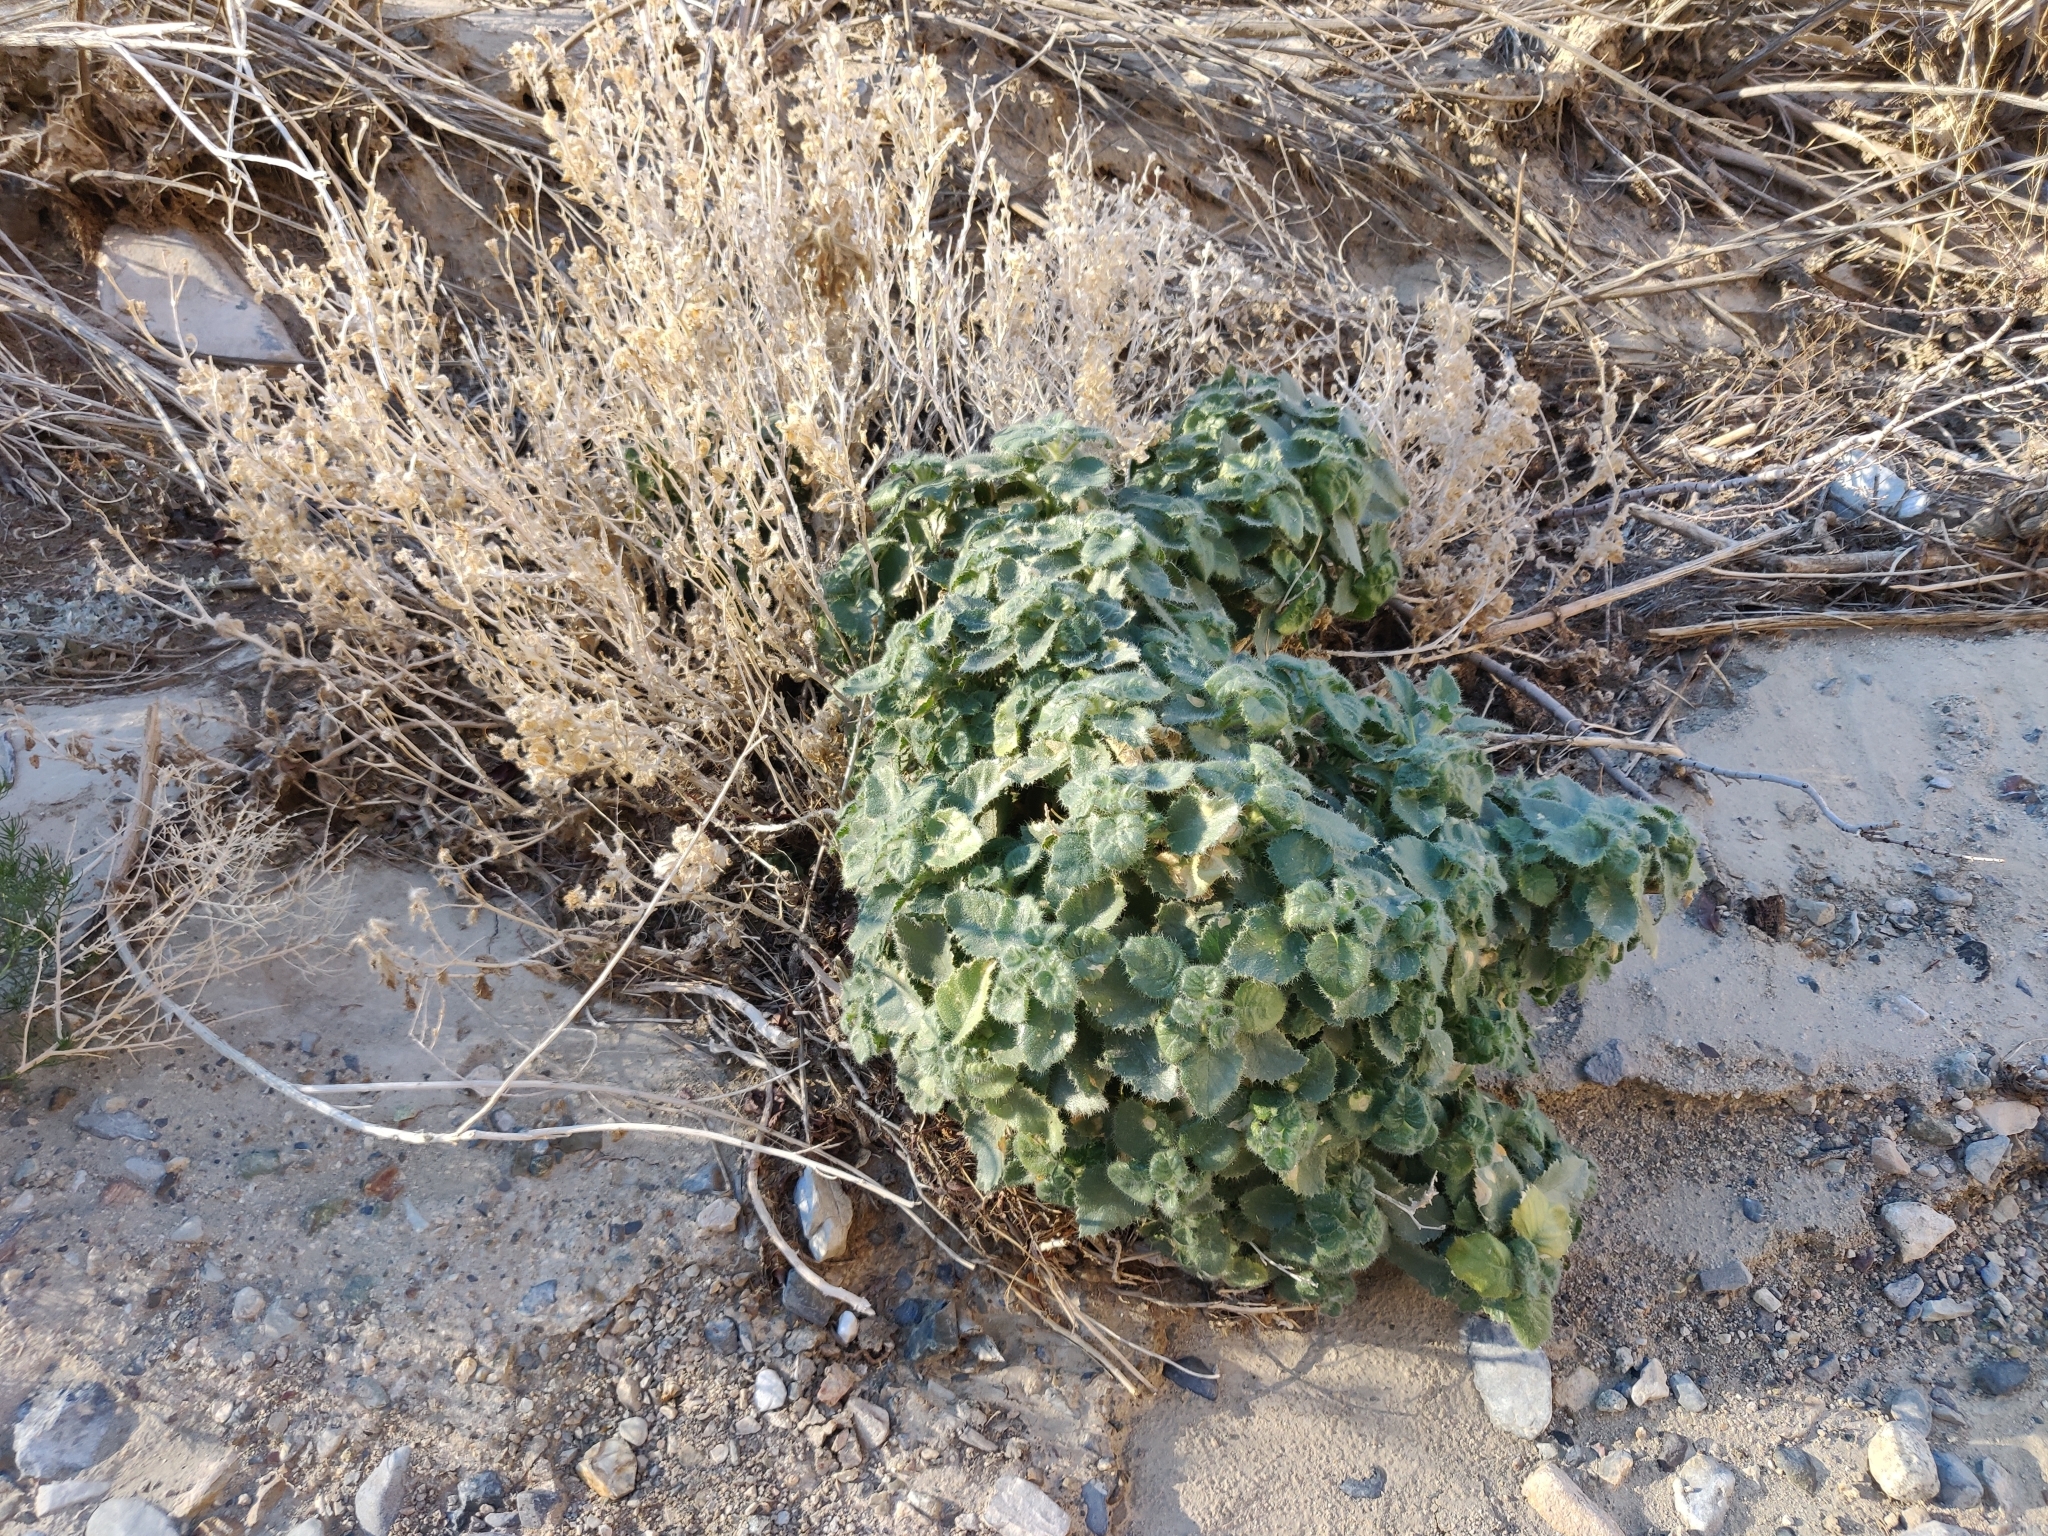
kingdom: Plantae
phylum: Tracheophyta
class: Magnoliopsida
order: Cornales
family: Loasaceae
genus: Eucnide
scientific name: Eucnide urens
